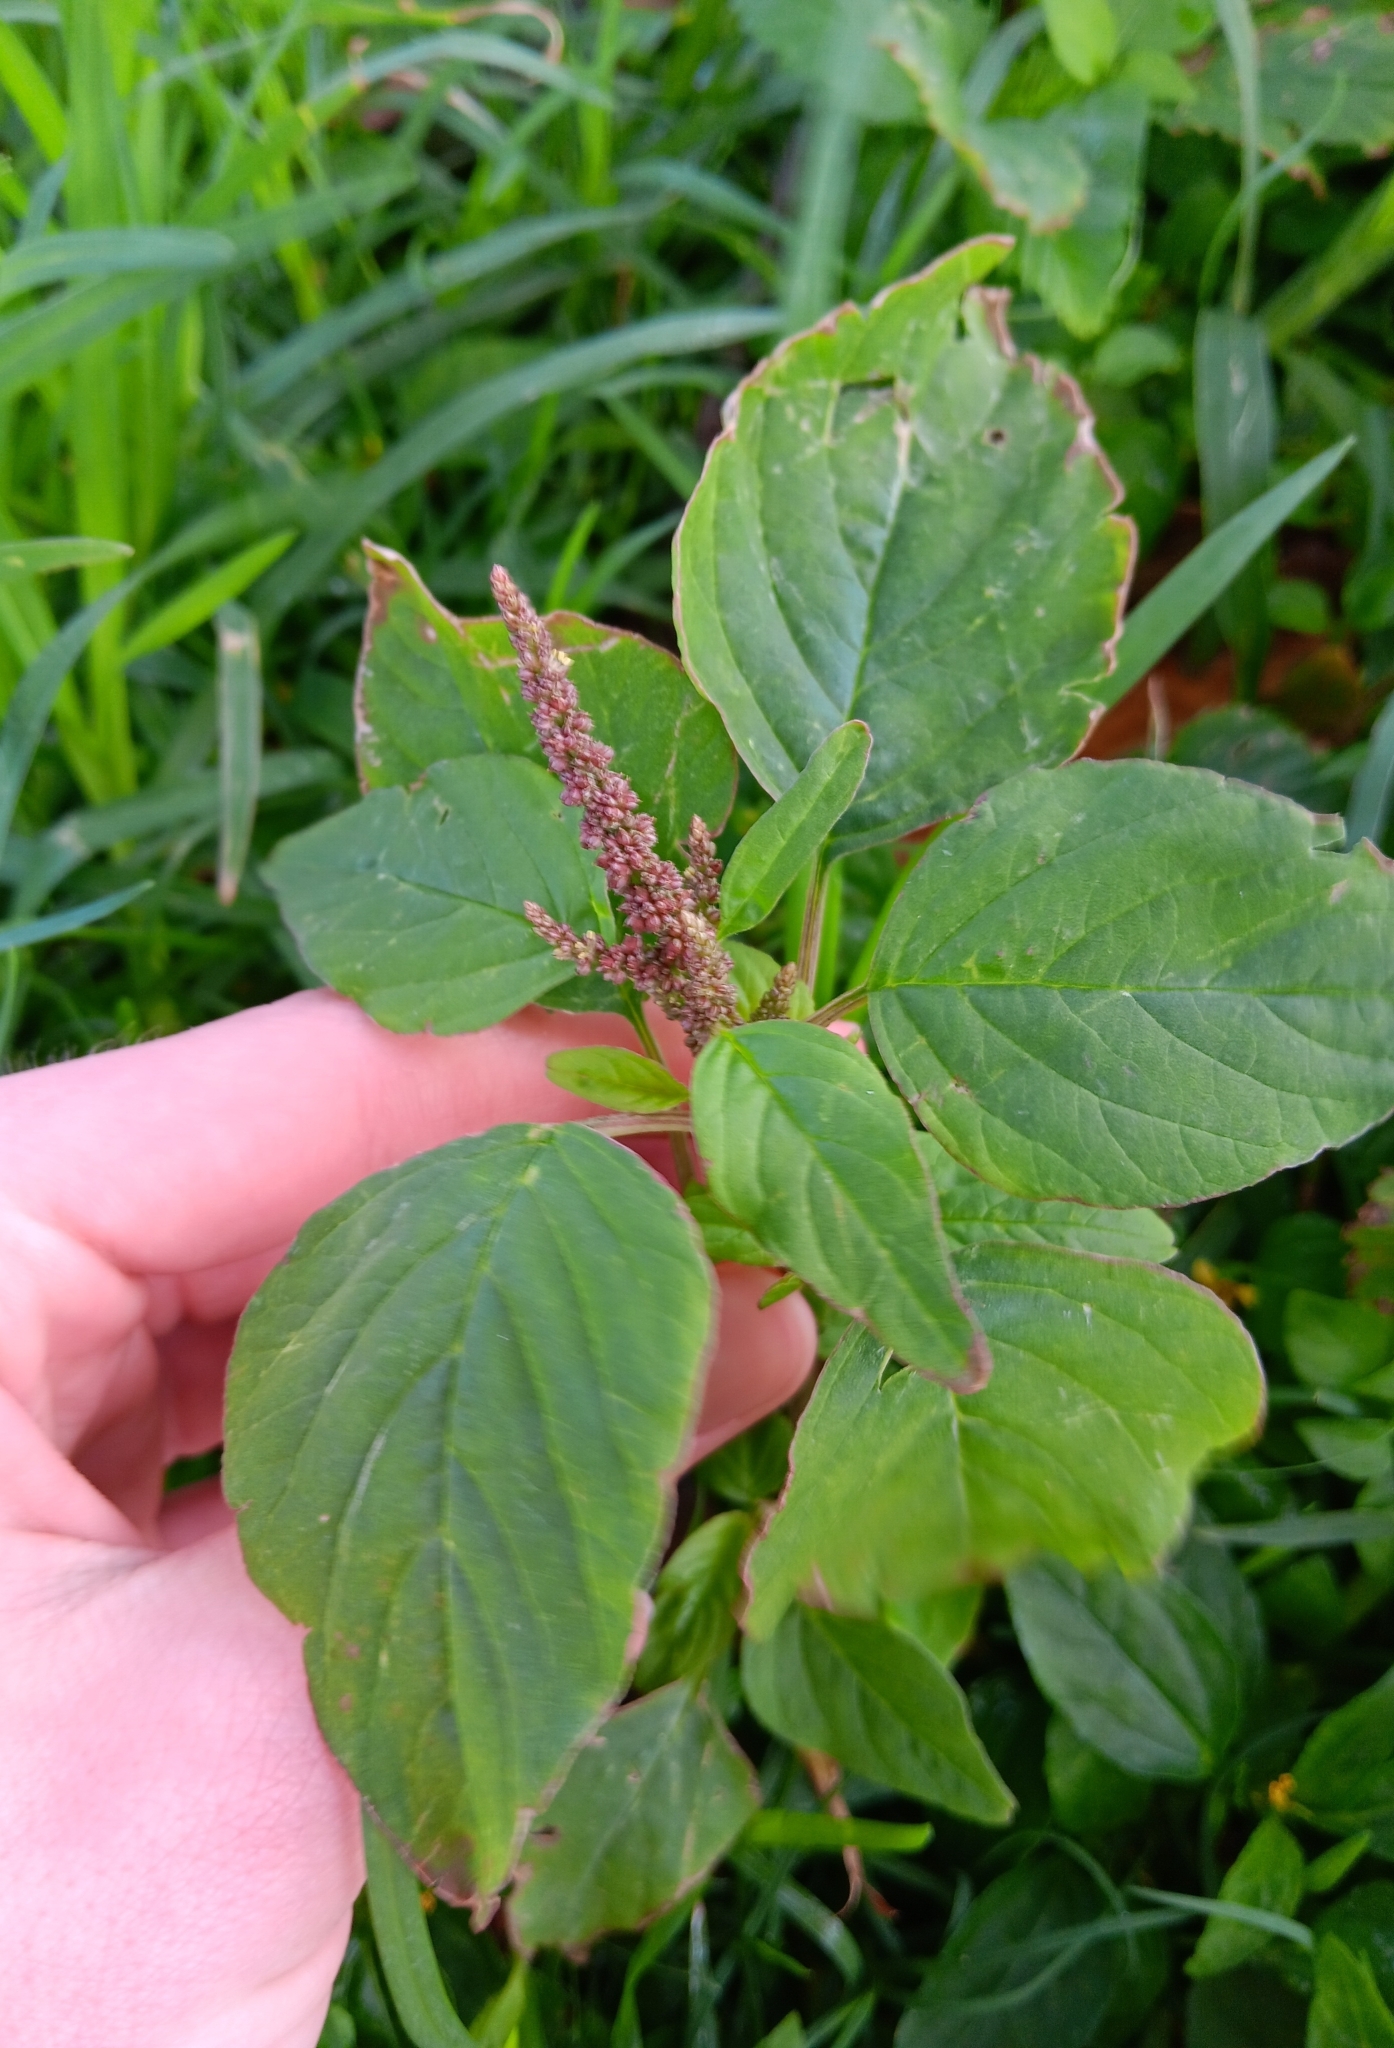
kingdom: Plantae
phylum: Tracheophyta
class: Magnoliopsida
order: Caryophyllales
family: Amaranthaceae
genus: Amaranthus
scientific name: Amaranthus viridis
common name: Slender amaranth
